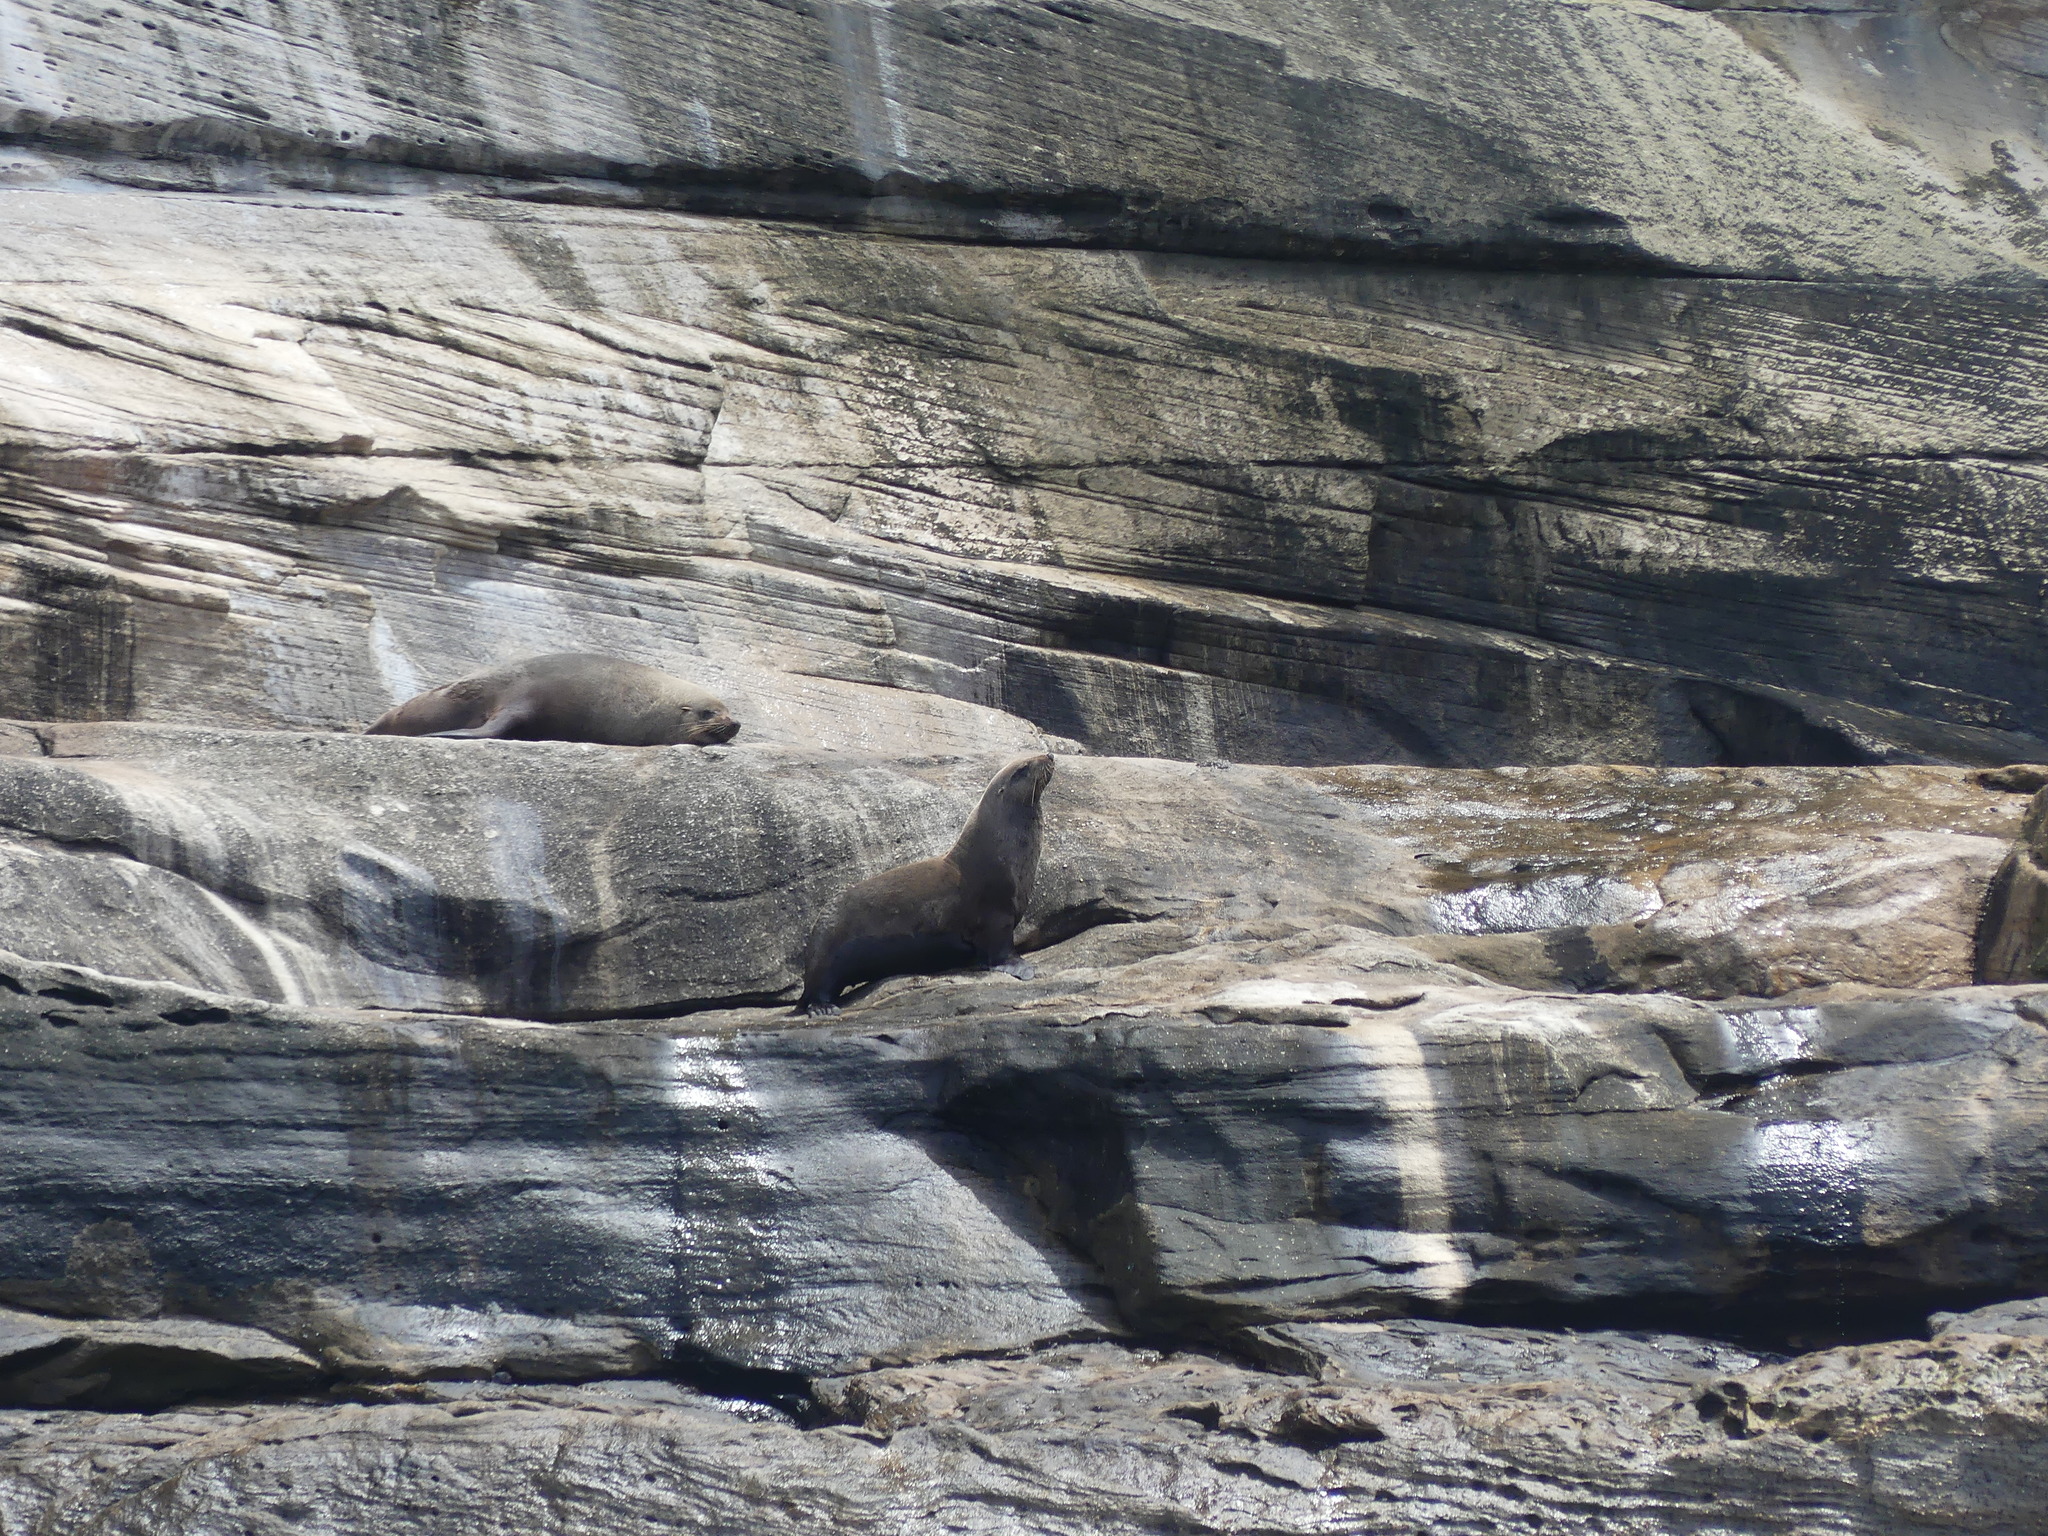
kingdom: Animalia
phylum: Chordata
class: Mammalia
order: Carnivora
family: Otariidae
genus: Arctocephalus
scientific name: Arctocephalus pusillus
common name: Brown fur seal
